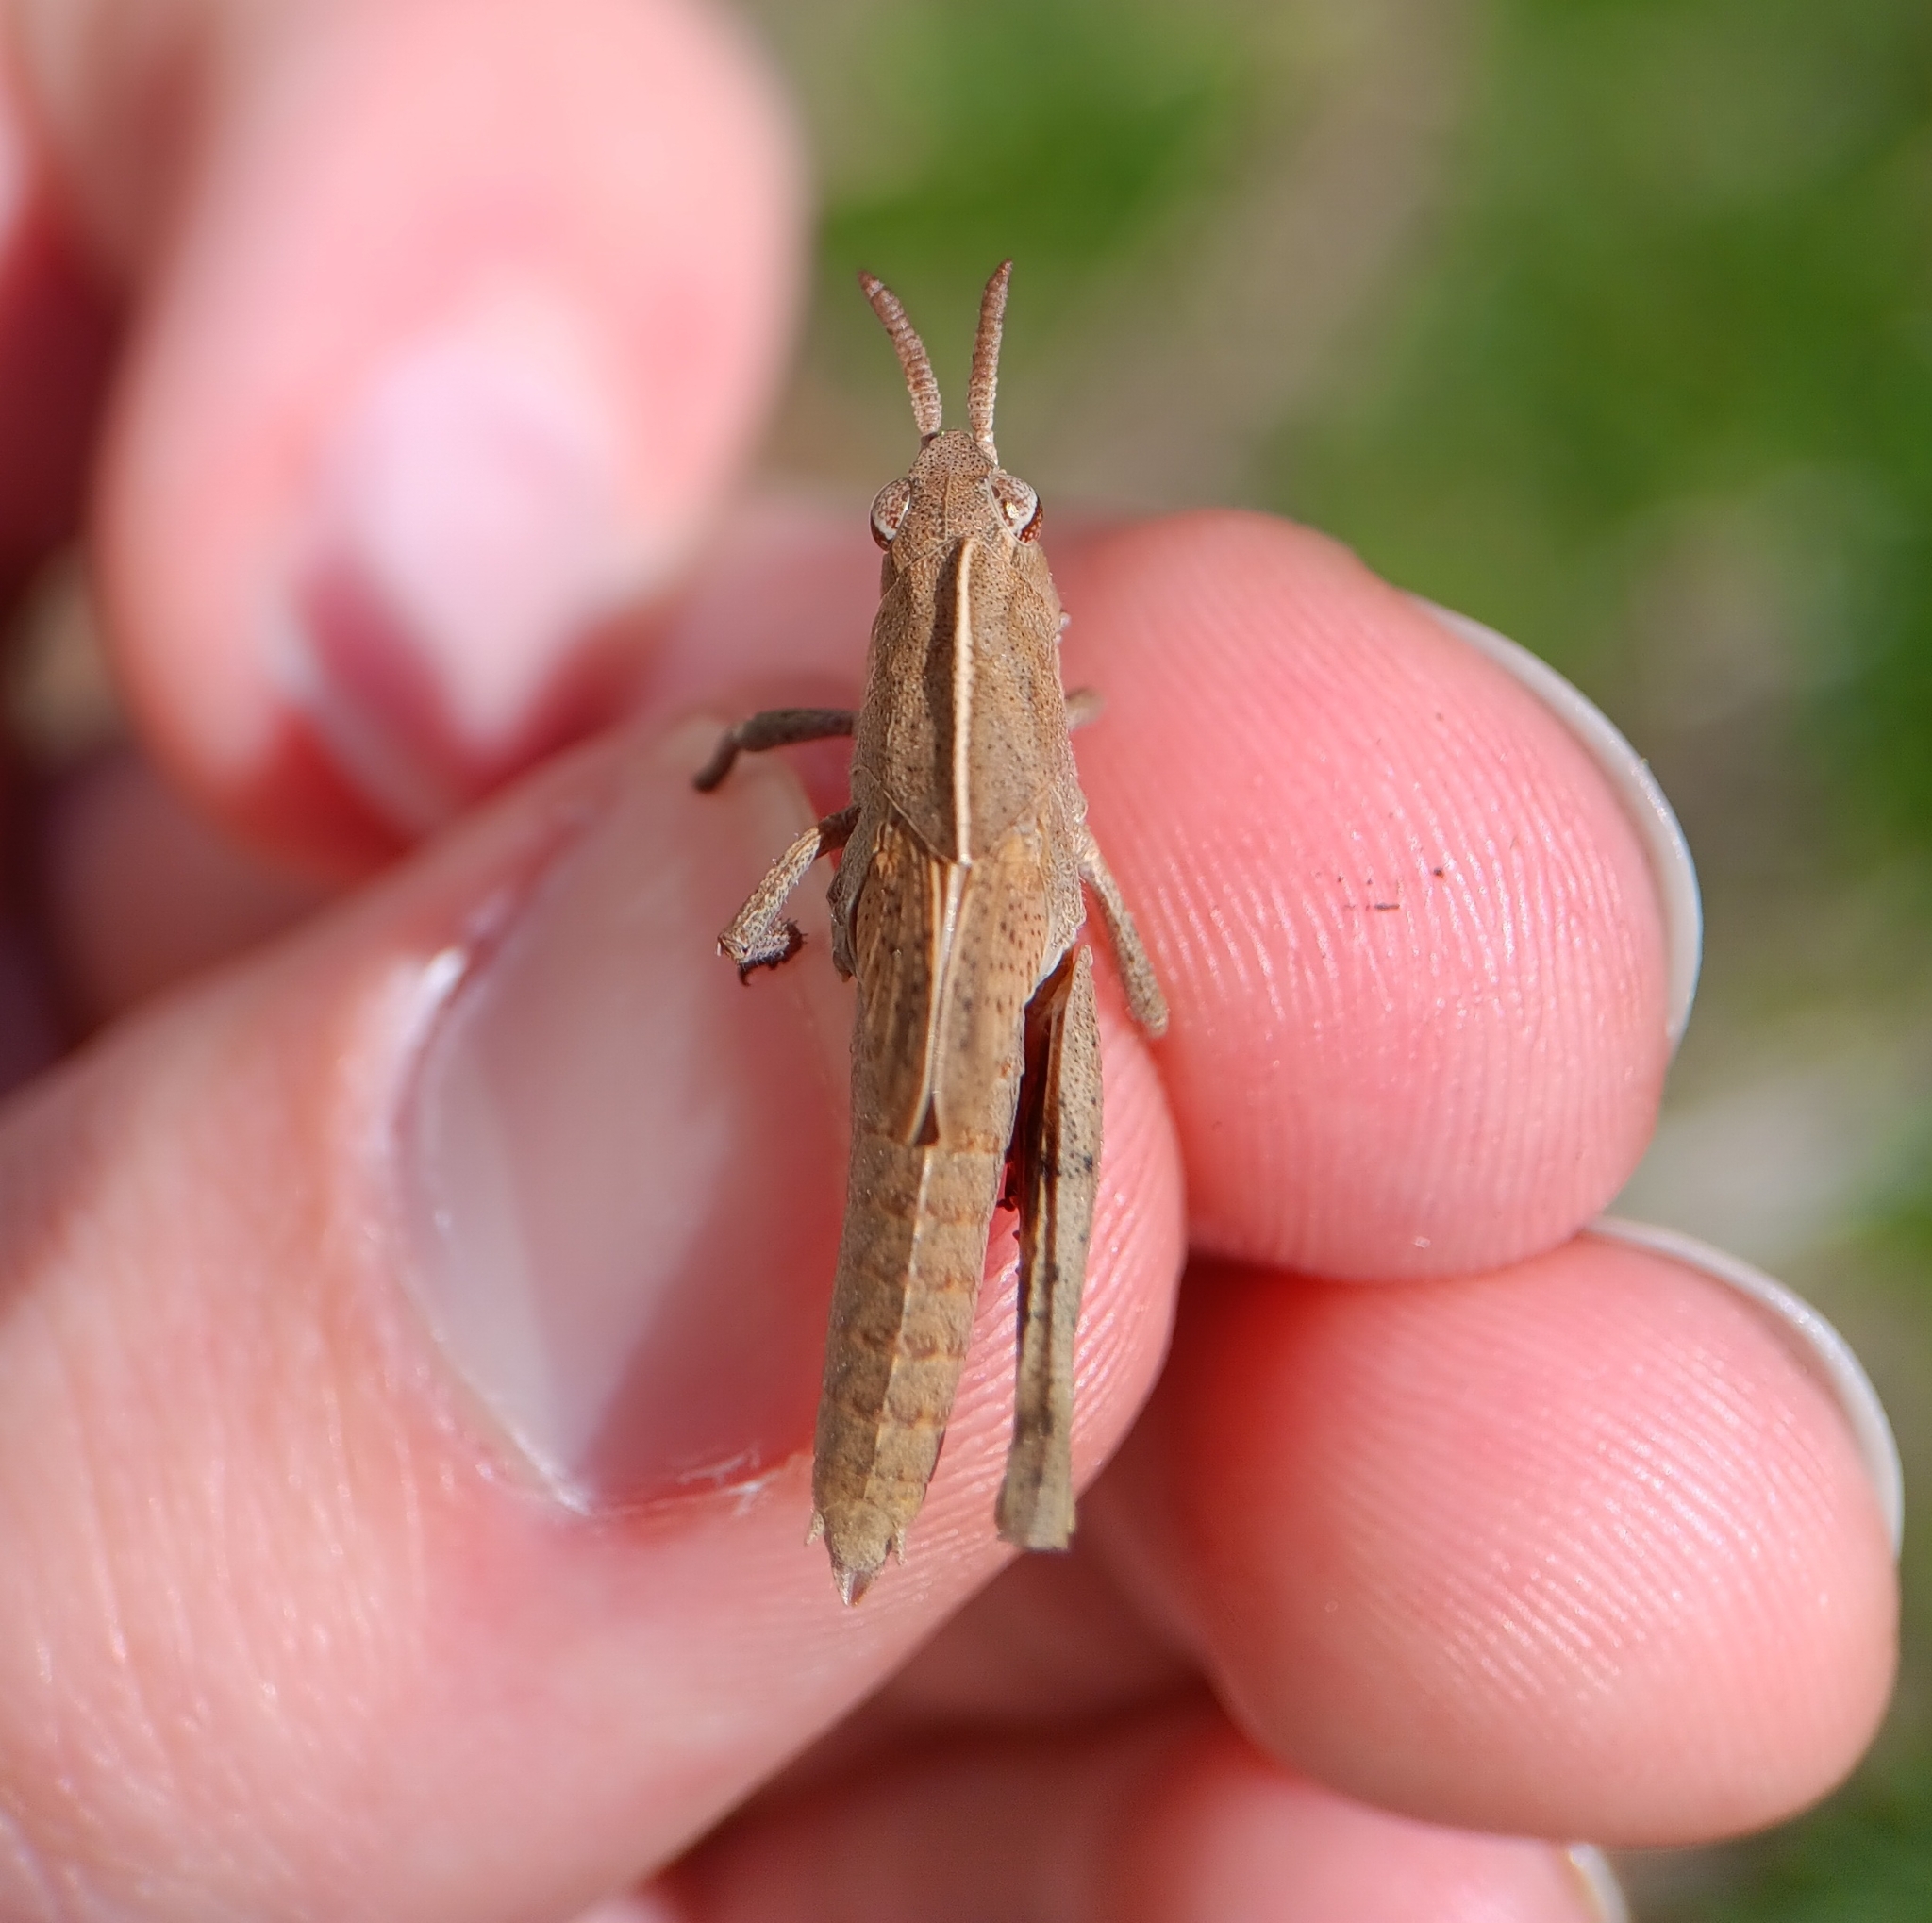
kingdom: Animalia
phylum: Arthropoda
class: Insecta
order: Orthoptera
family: Acrididae
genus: Chortophaga
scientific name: Chortophaga viridifasciata
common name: Green-striped grasshopper
